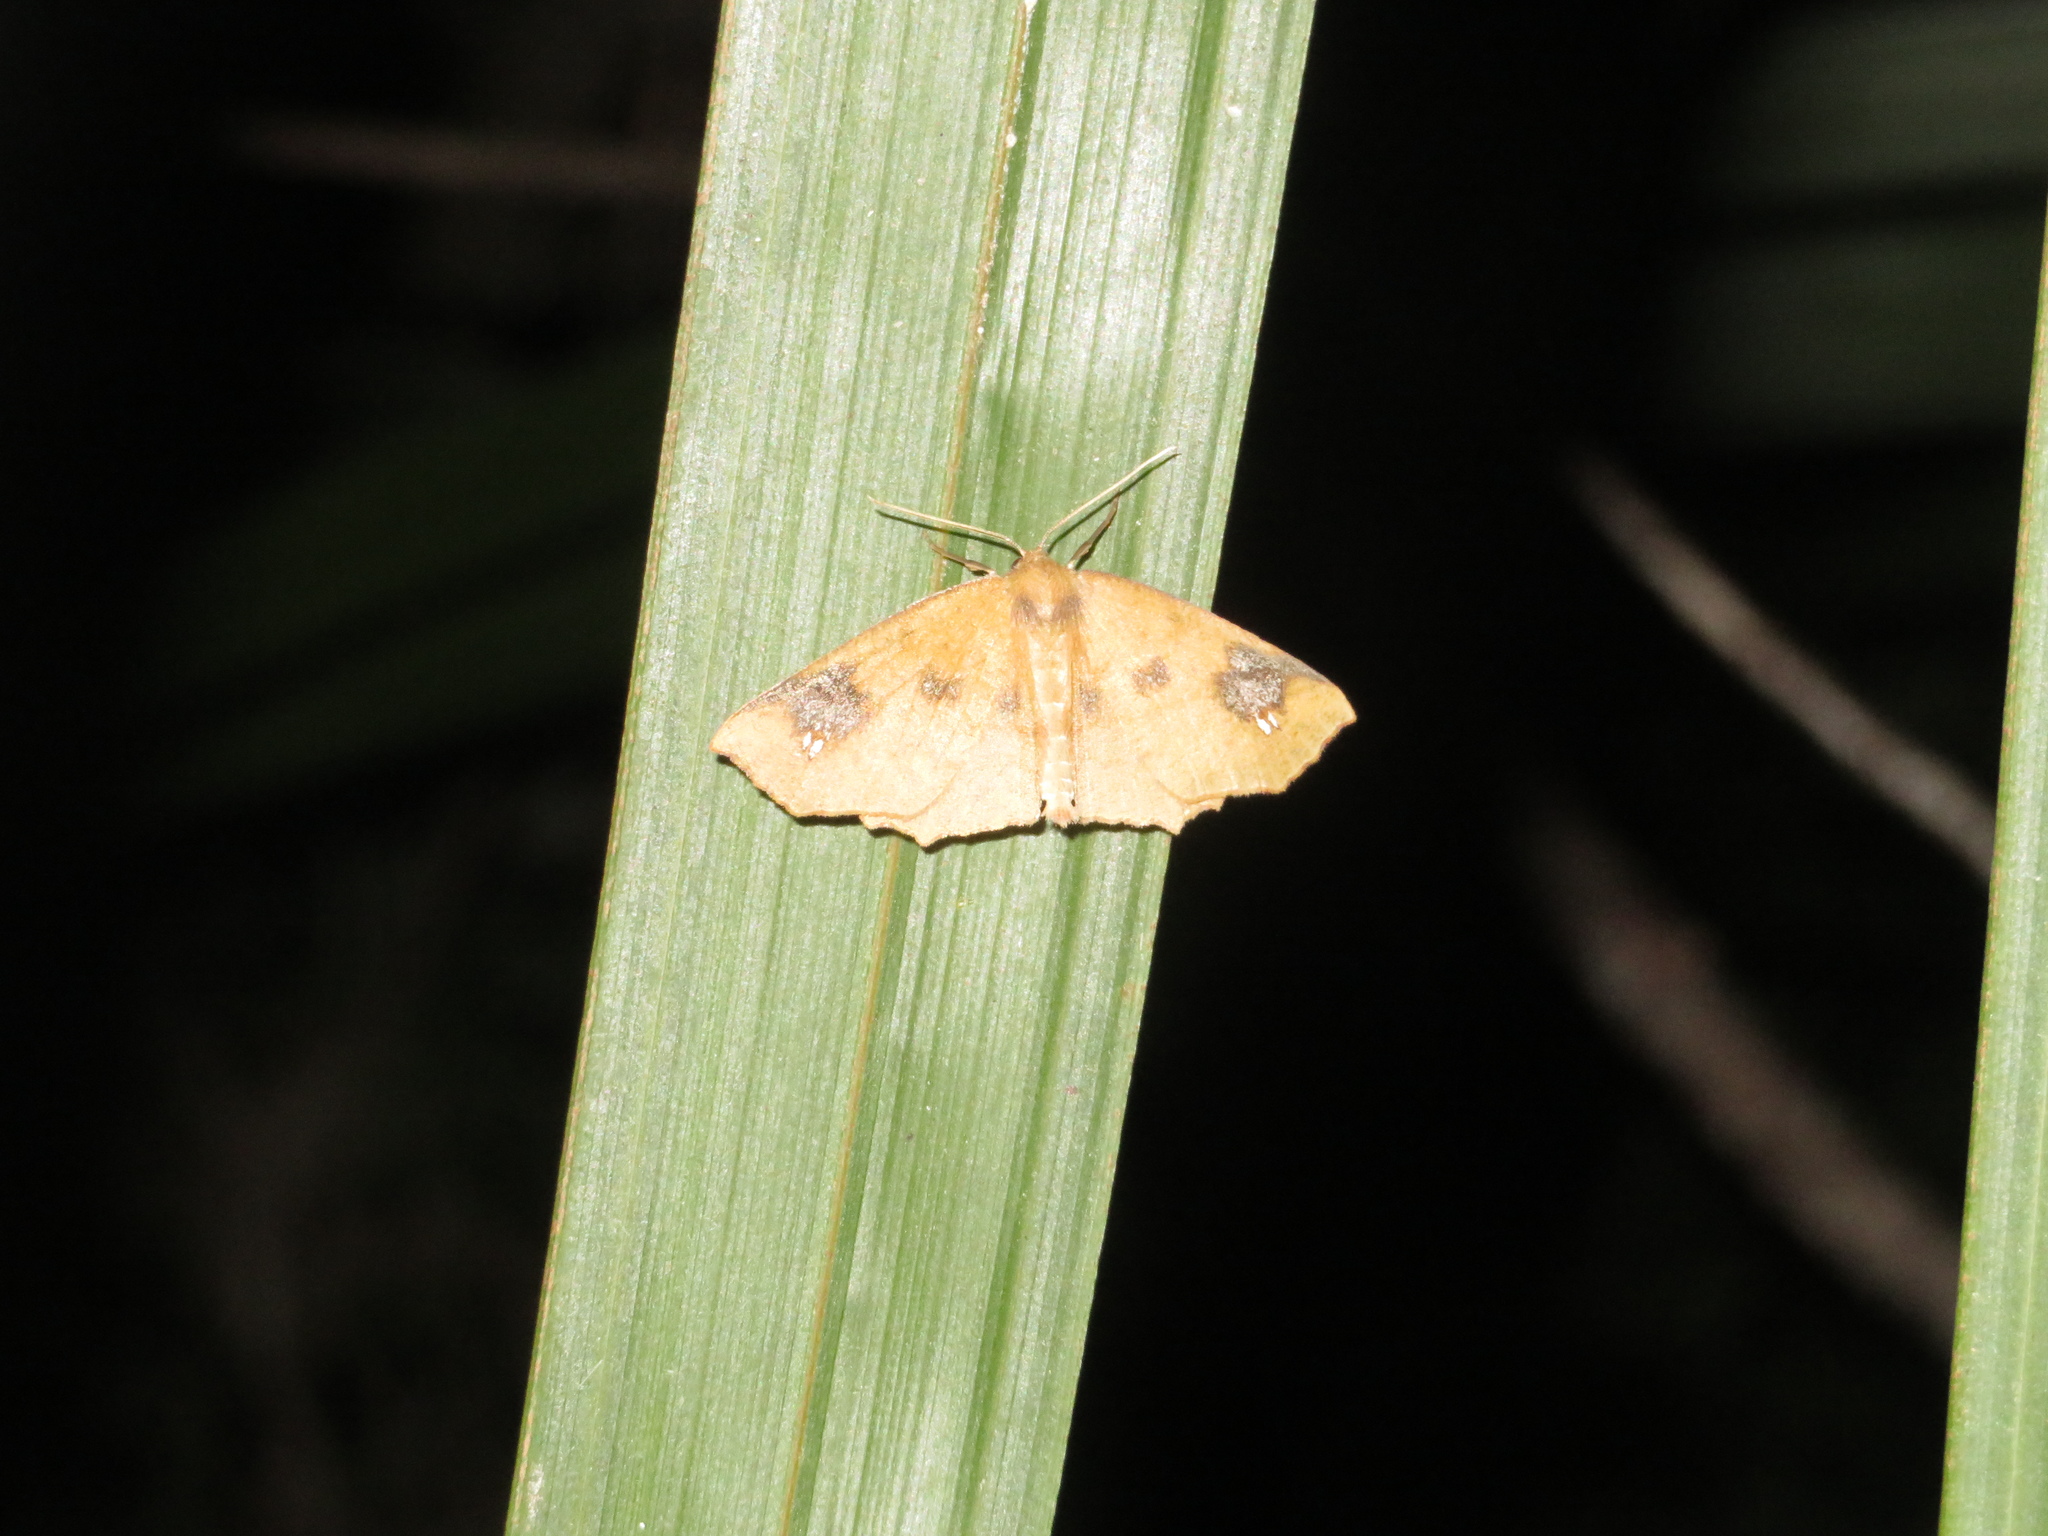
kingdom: Animalia
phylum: Arthropoda
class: Insecta
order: Lepidoptera
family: Geometridae
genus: Xyridacma
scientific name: Xyridacma ustaria
